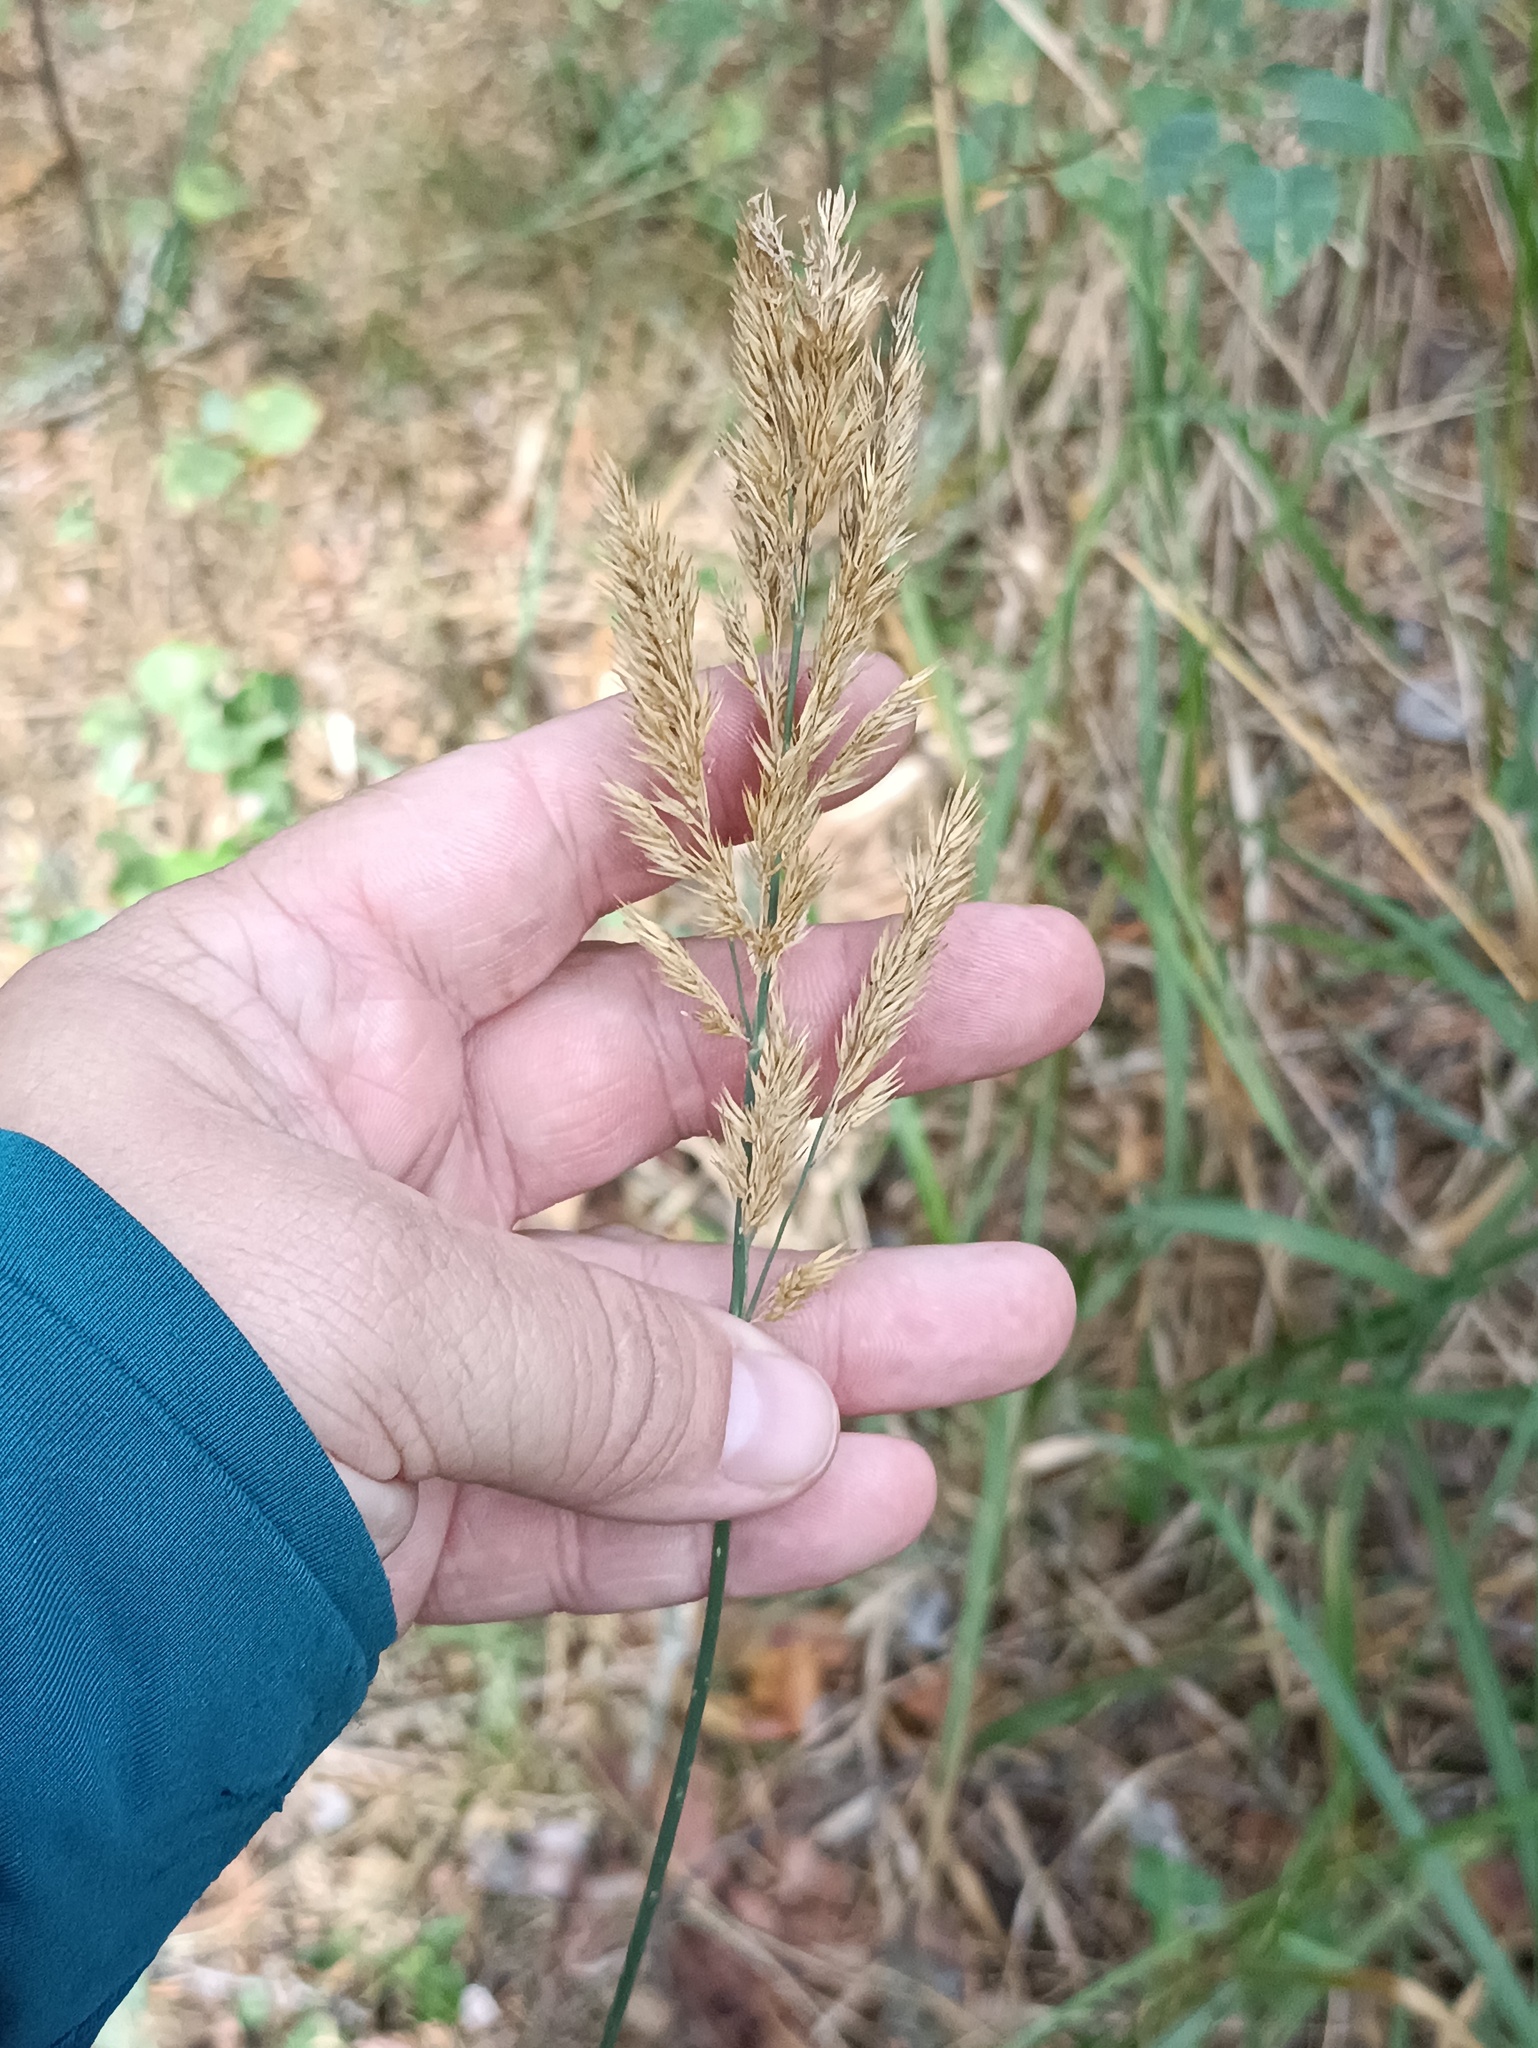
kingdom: Plantae
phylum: Tracheophyta
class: Liliopsida
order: Poales
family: Poaceae
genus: Calamagrostis
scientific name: Calamagrostis epigejos
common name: Wood small-reed
